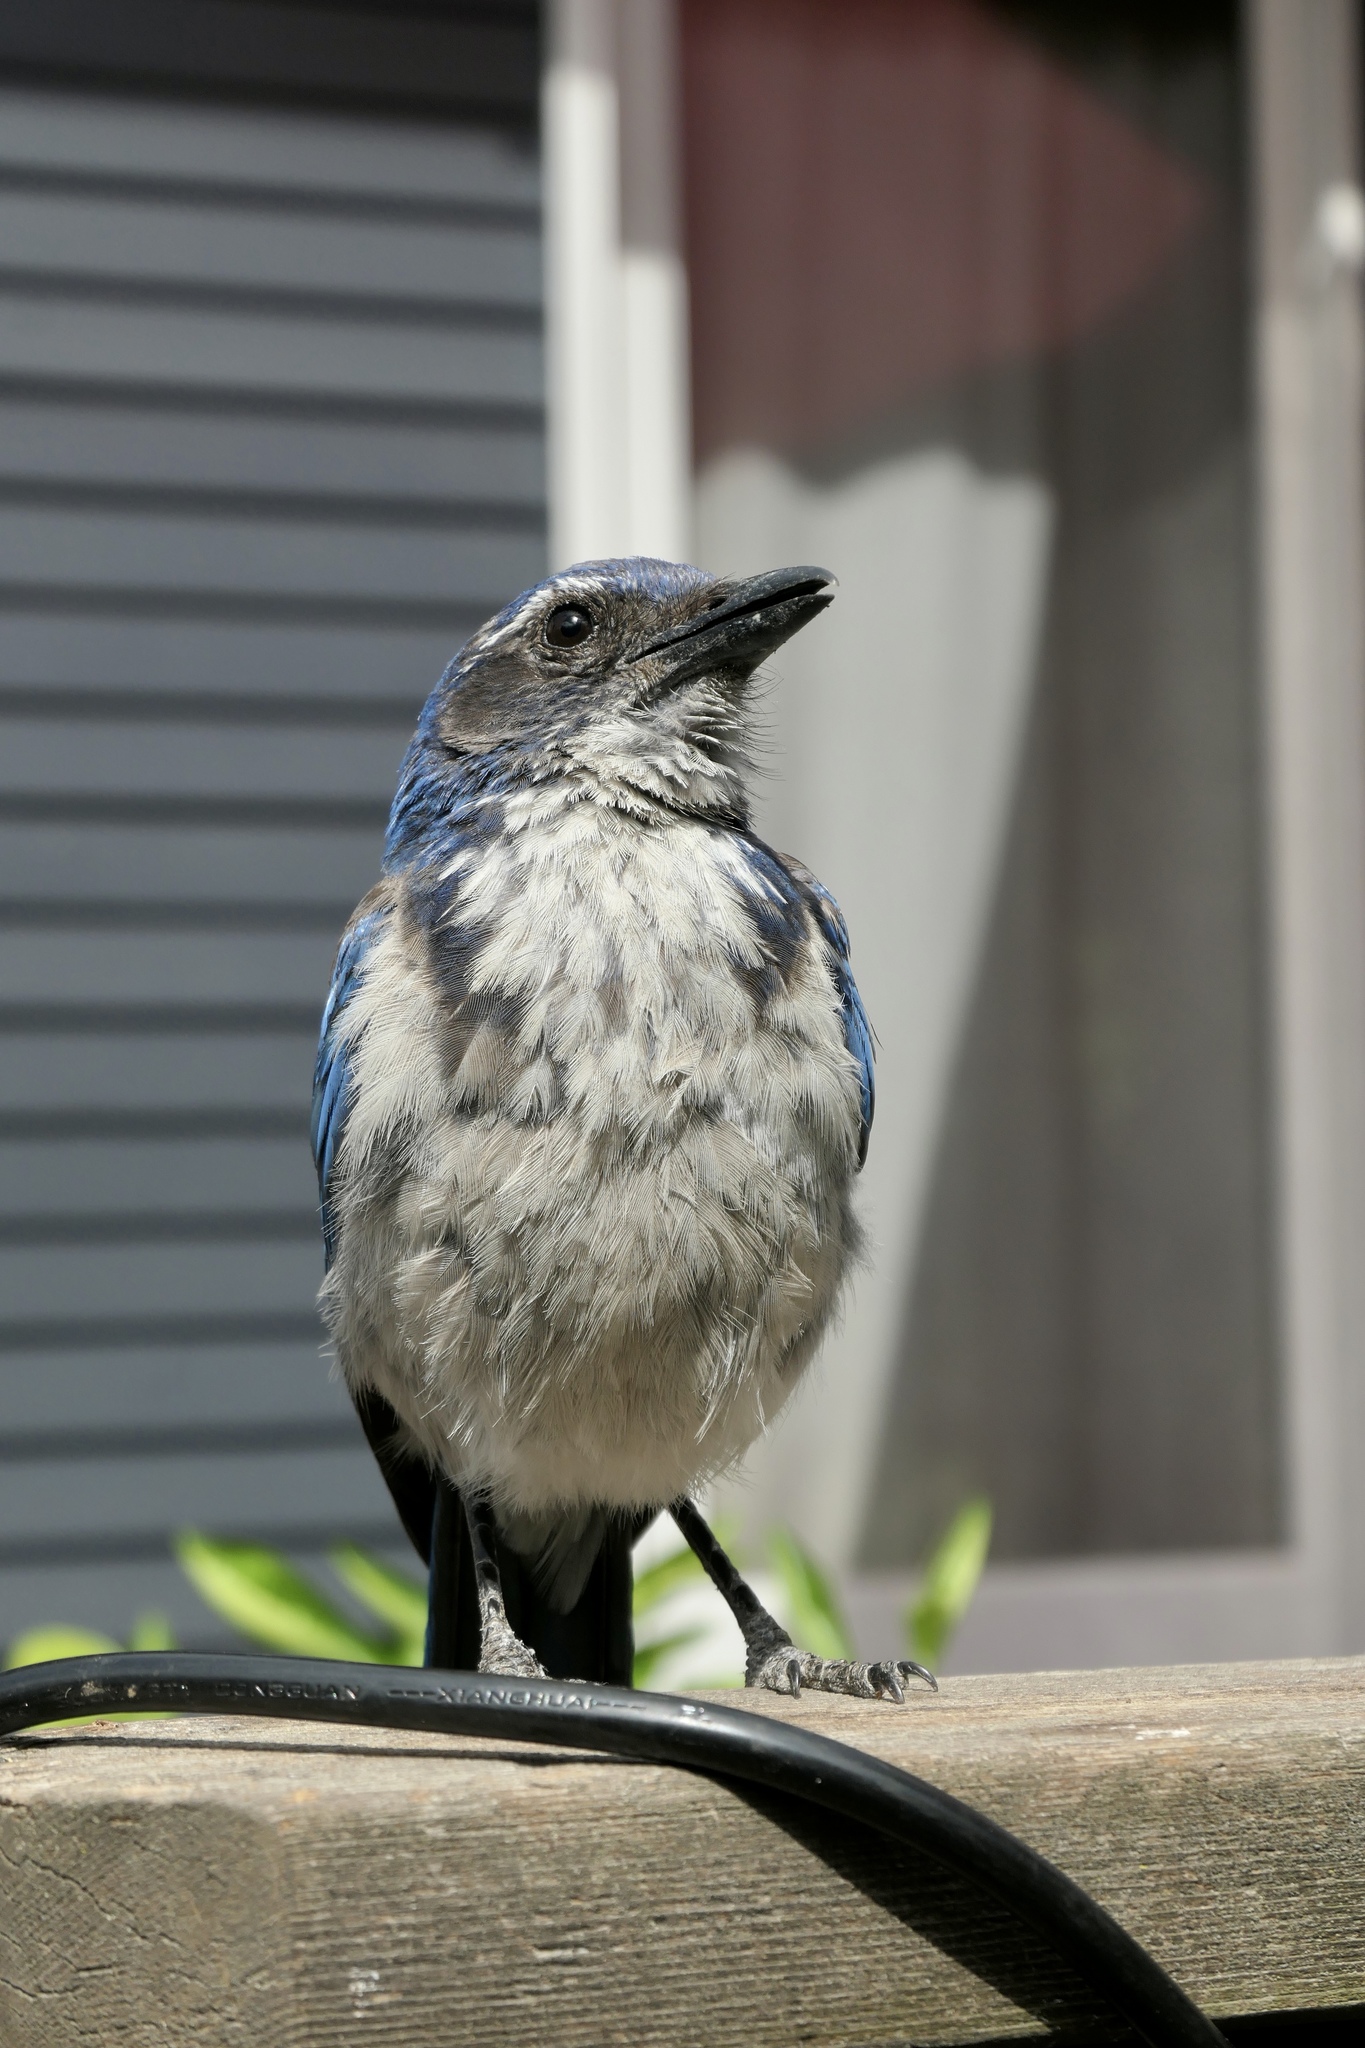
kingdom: Animalia
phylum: Chordata
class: Aves
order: Passeriformes
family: Corvidae
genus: Aphelocoma
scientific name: Aphelocoma californica
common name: California scrub-jay
